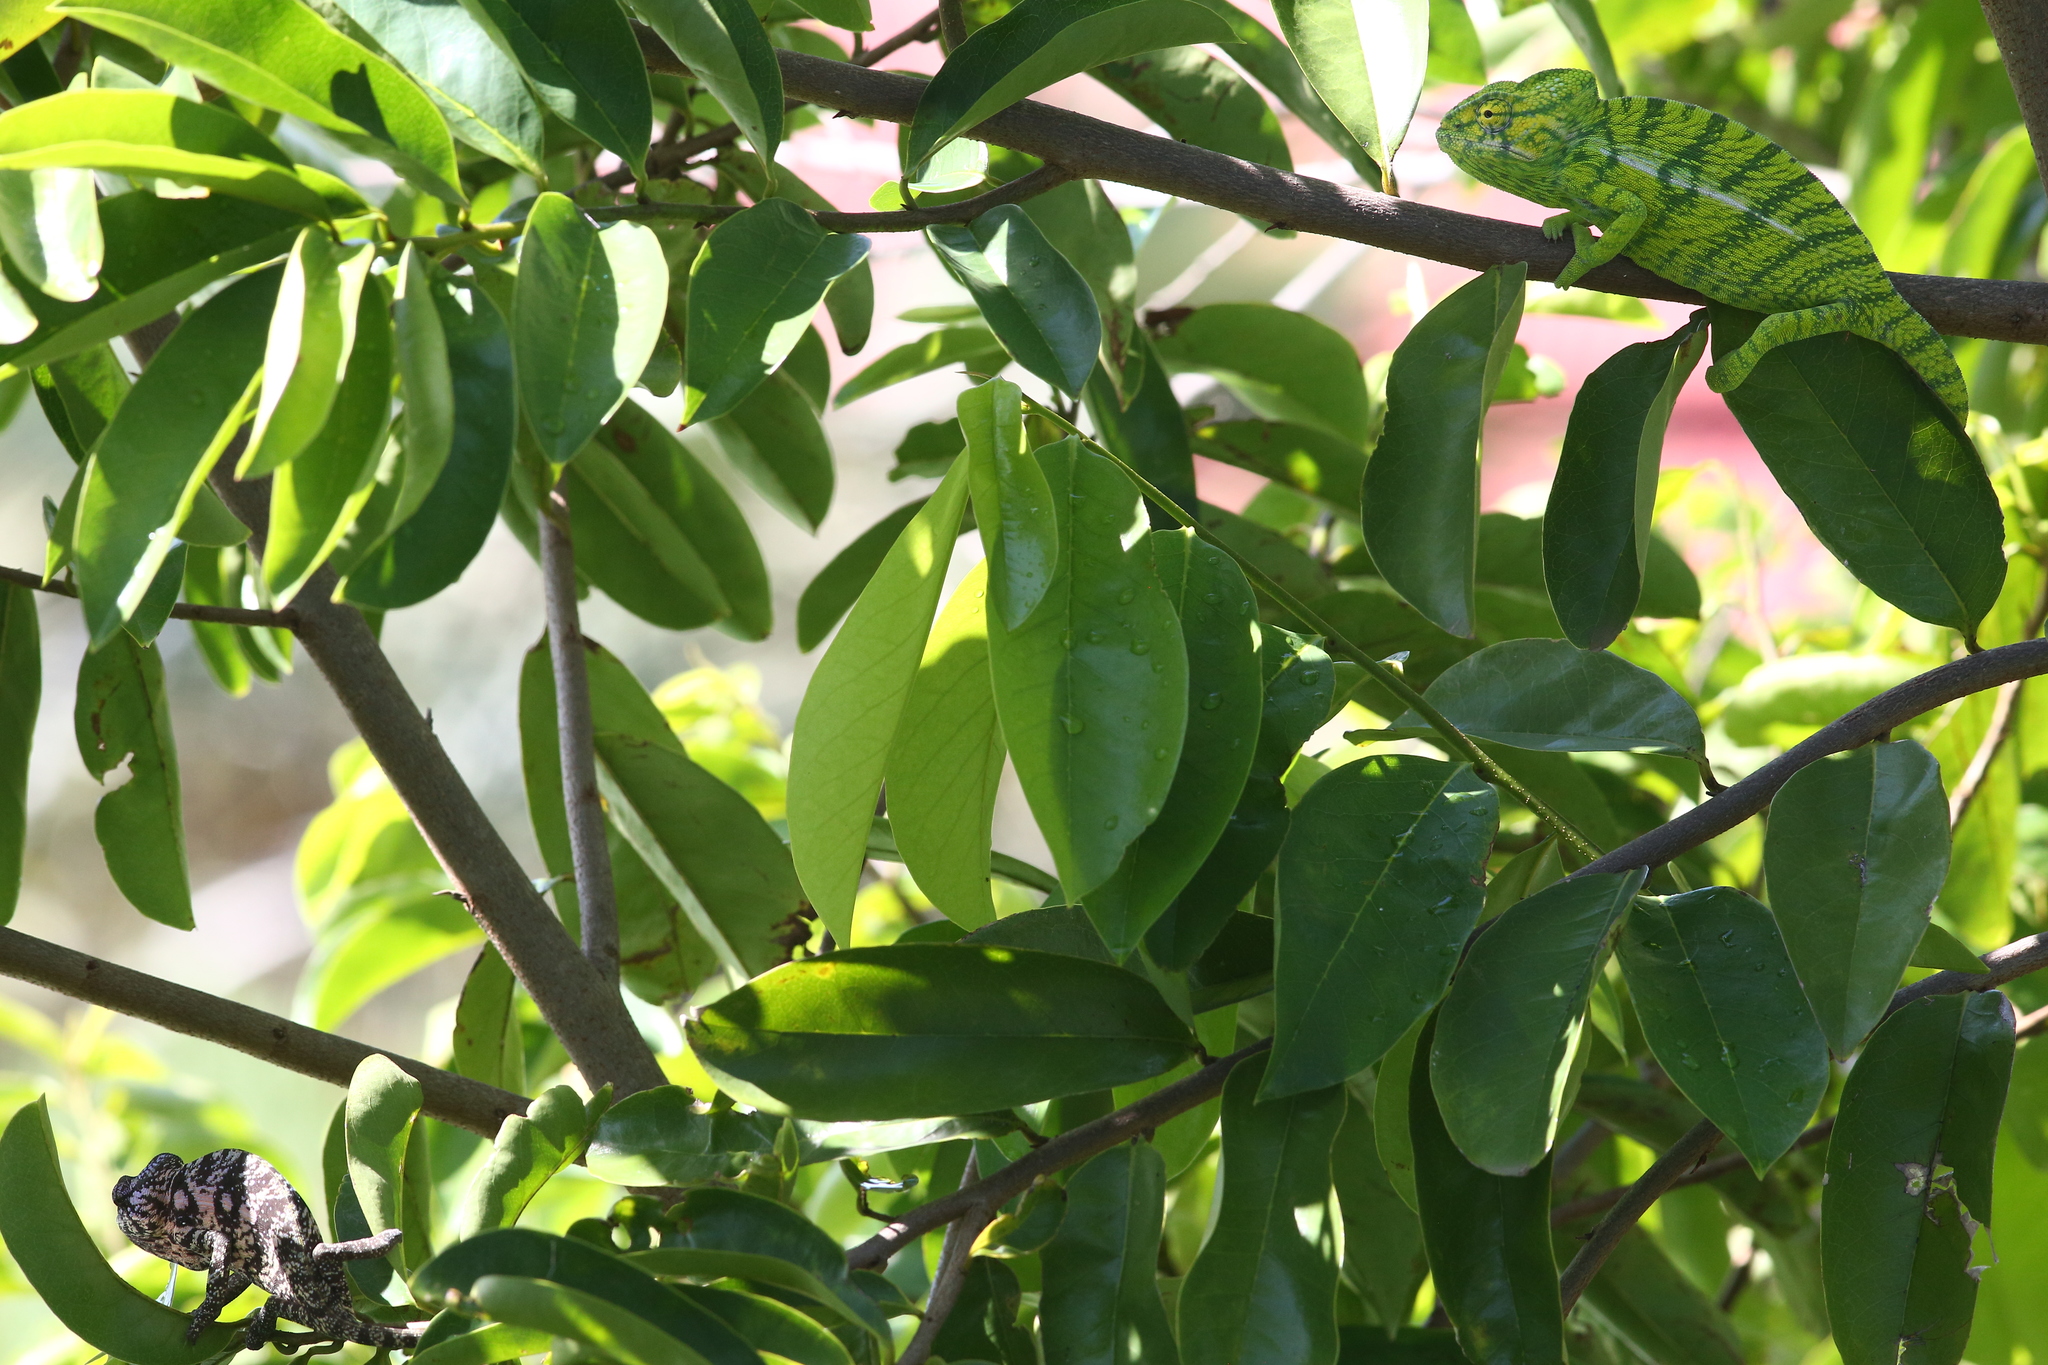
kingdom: Animalia
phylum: Chordata
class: Squamata
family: Chamaeleonidae
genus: Furcifer
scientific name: Furcifer viridis
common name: Green chameleon
